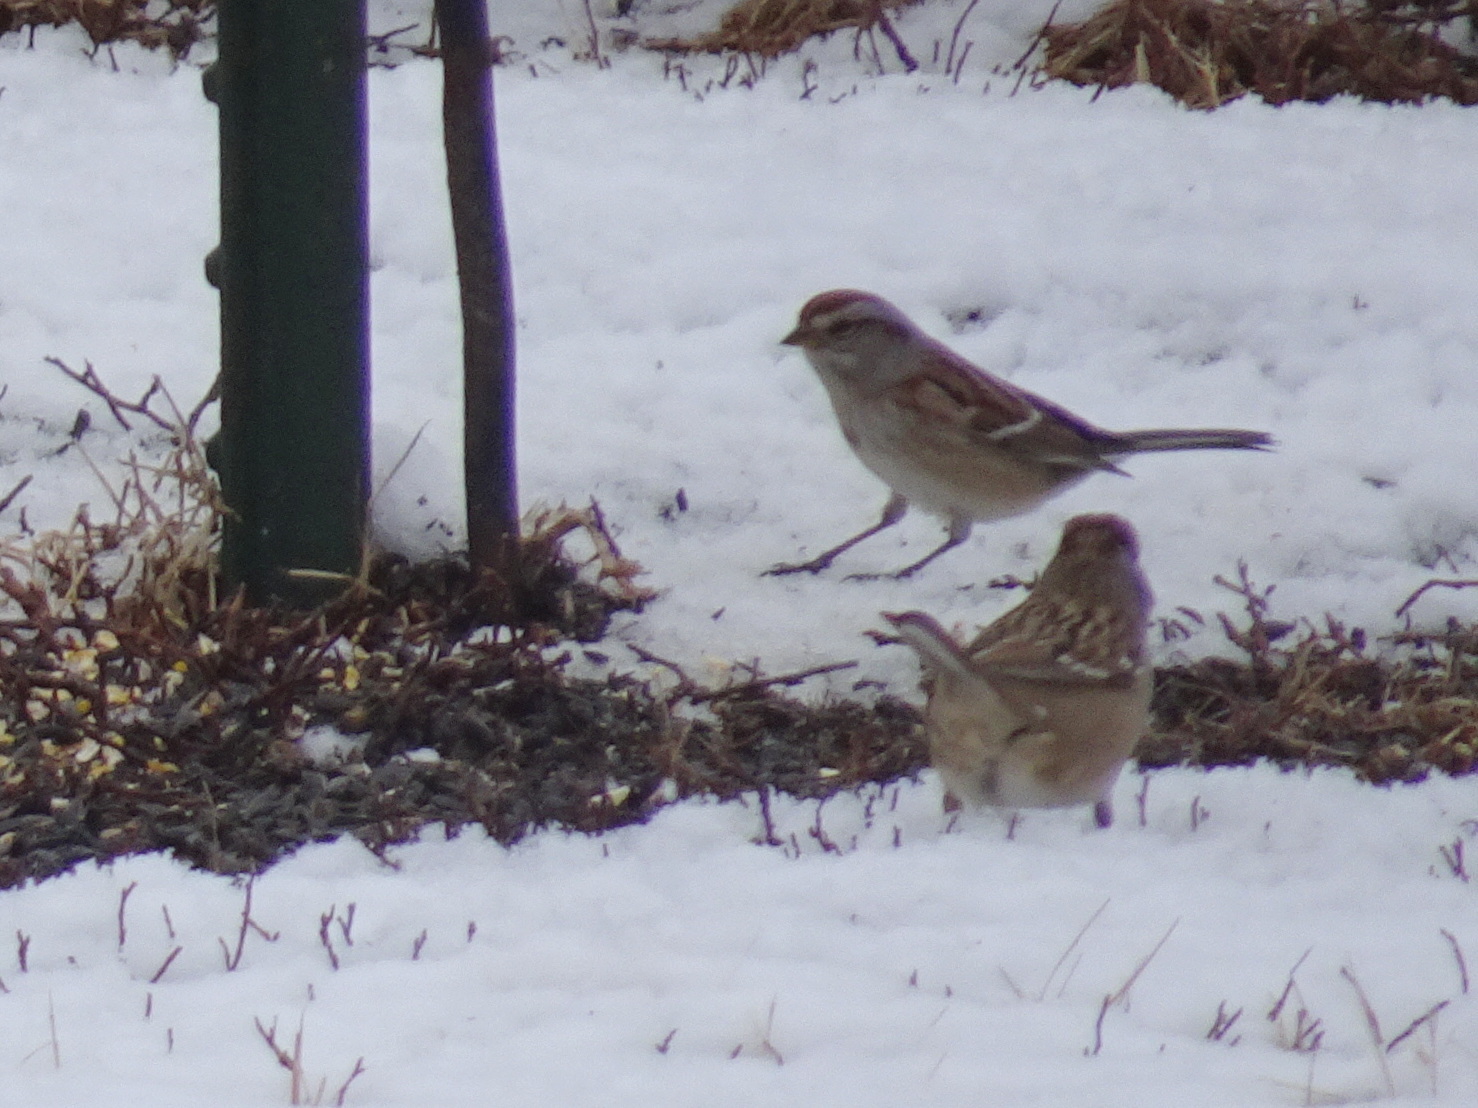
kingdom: Animalia
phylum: Chordata
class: Aves
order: Passeriformes
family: Passerellidae
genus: Spizelloides
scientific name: Spizelloides arborea
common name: American tree sparrow
